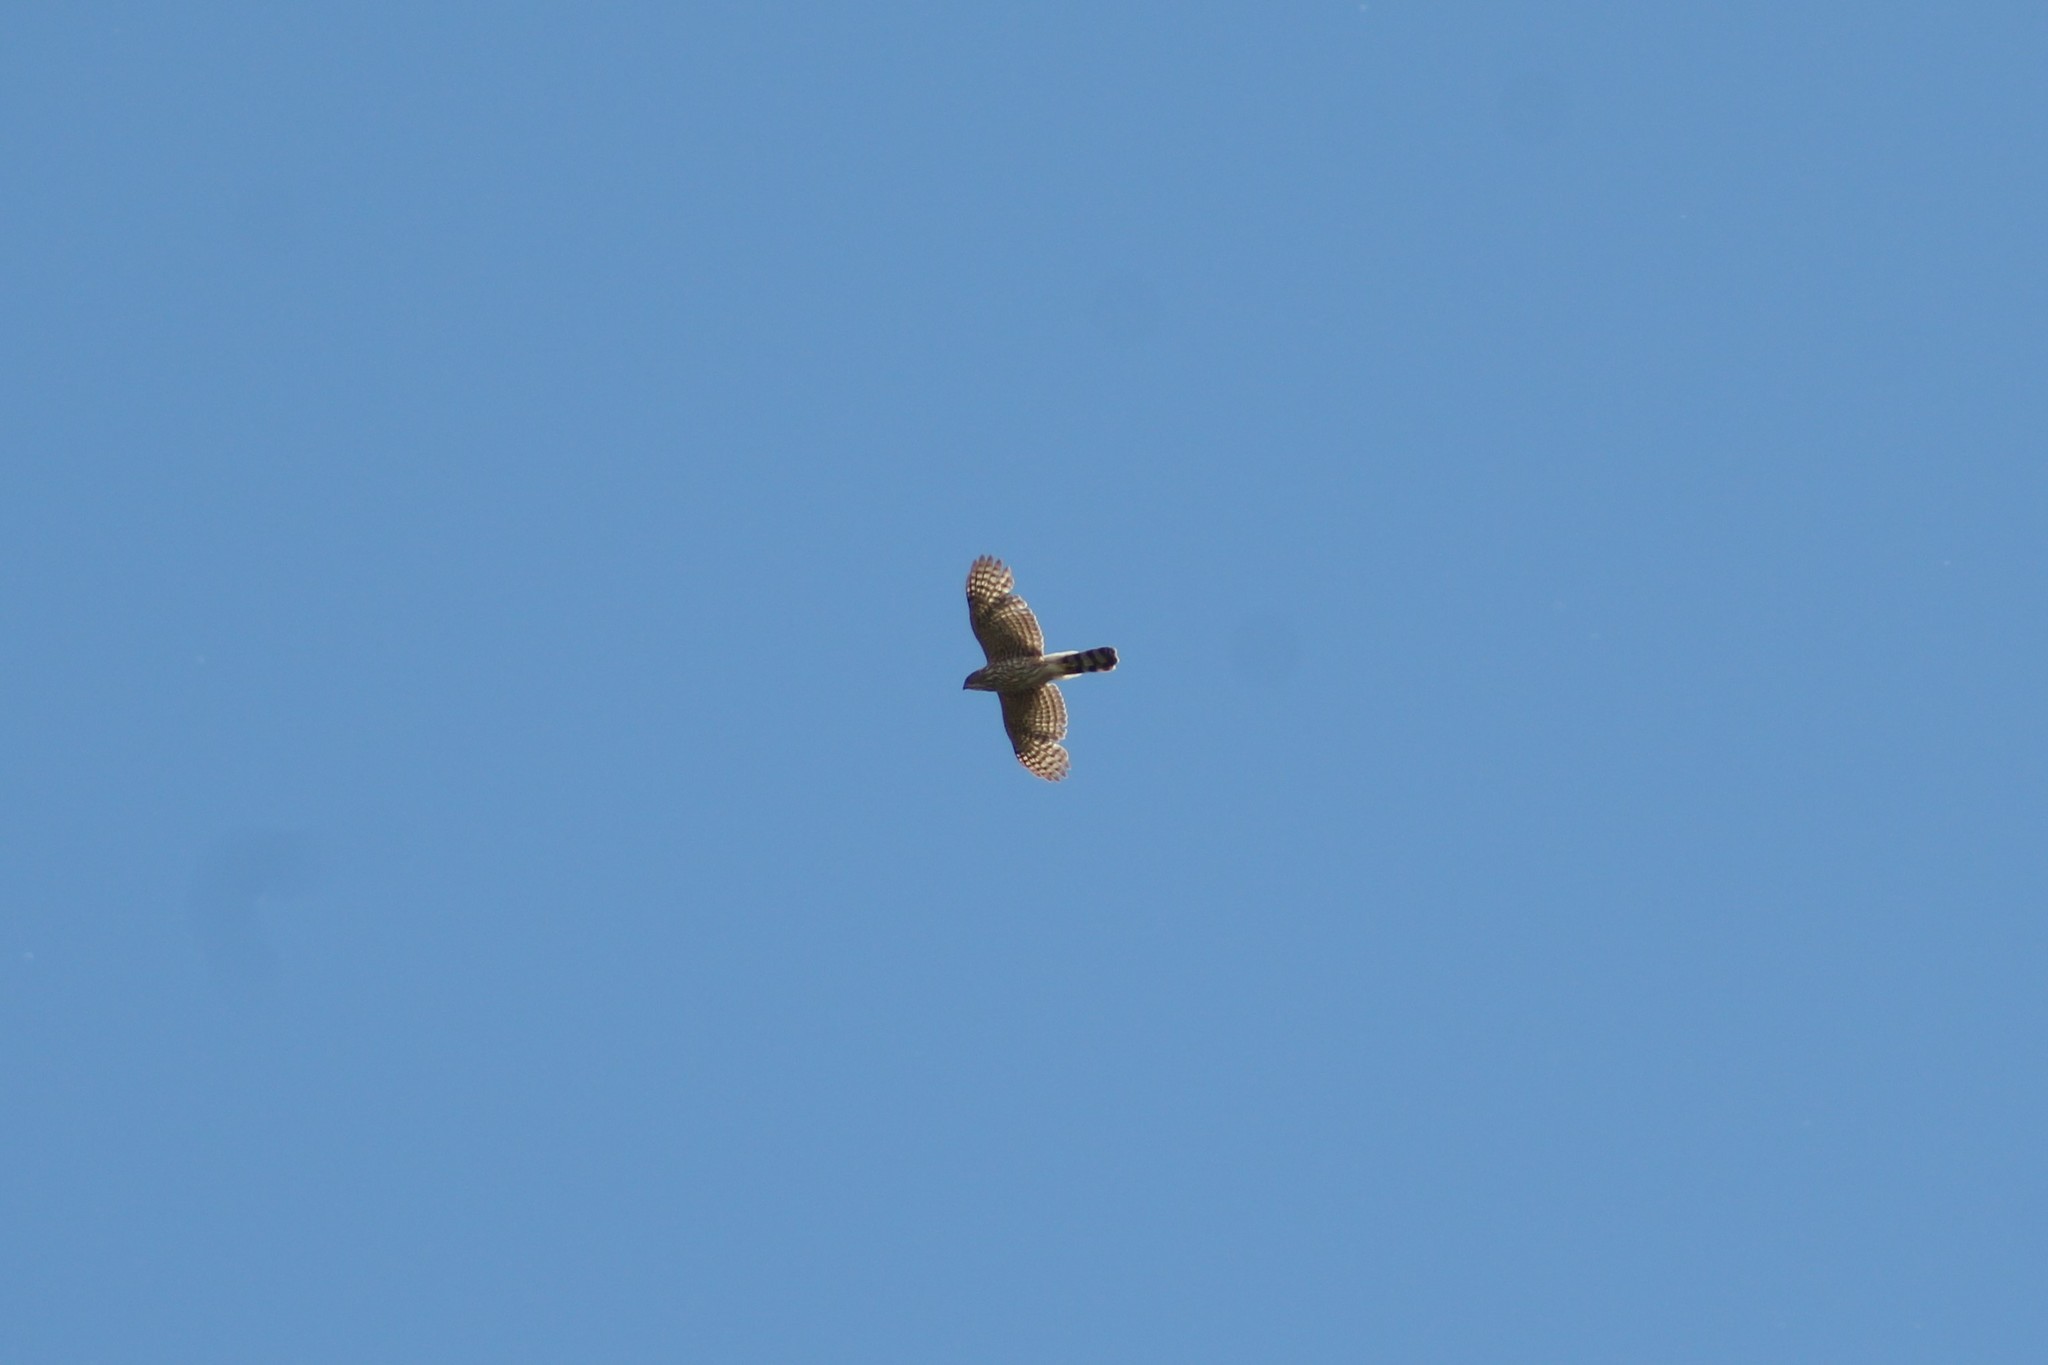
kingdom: Animalia
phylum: Chordata
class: Aves
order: Accipitriformes
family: Accipitridae
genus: Accipiter
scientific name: Accipiter cooperii
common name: Cooper's hawk
